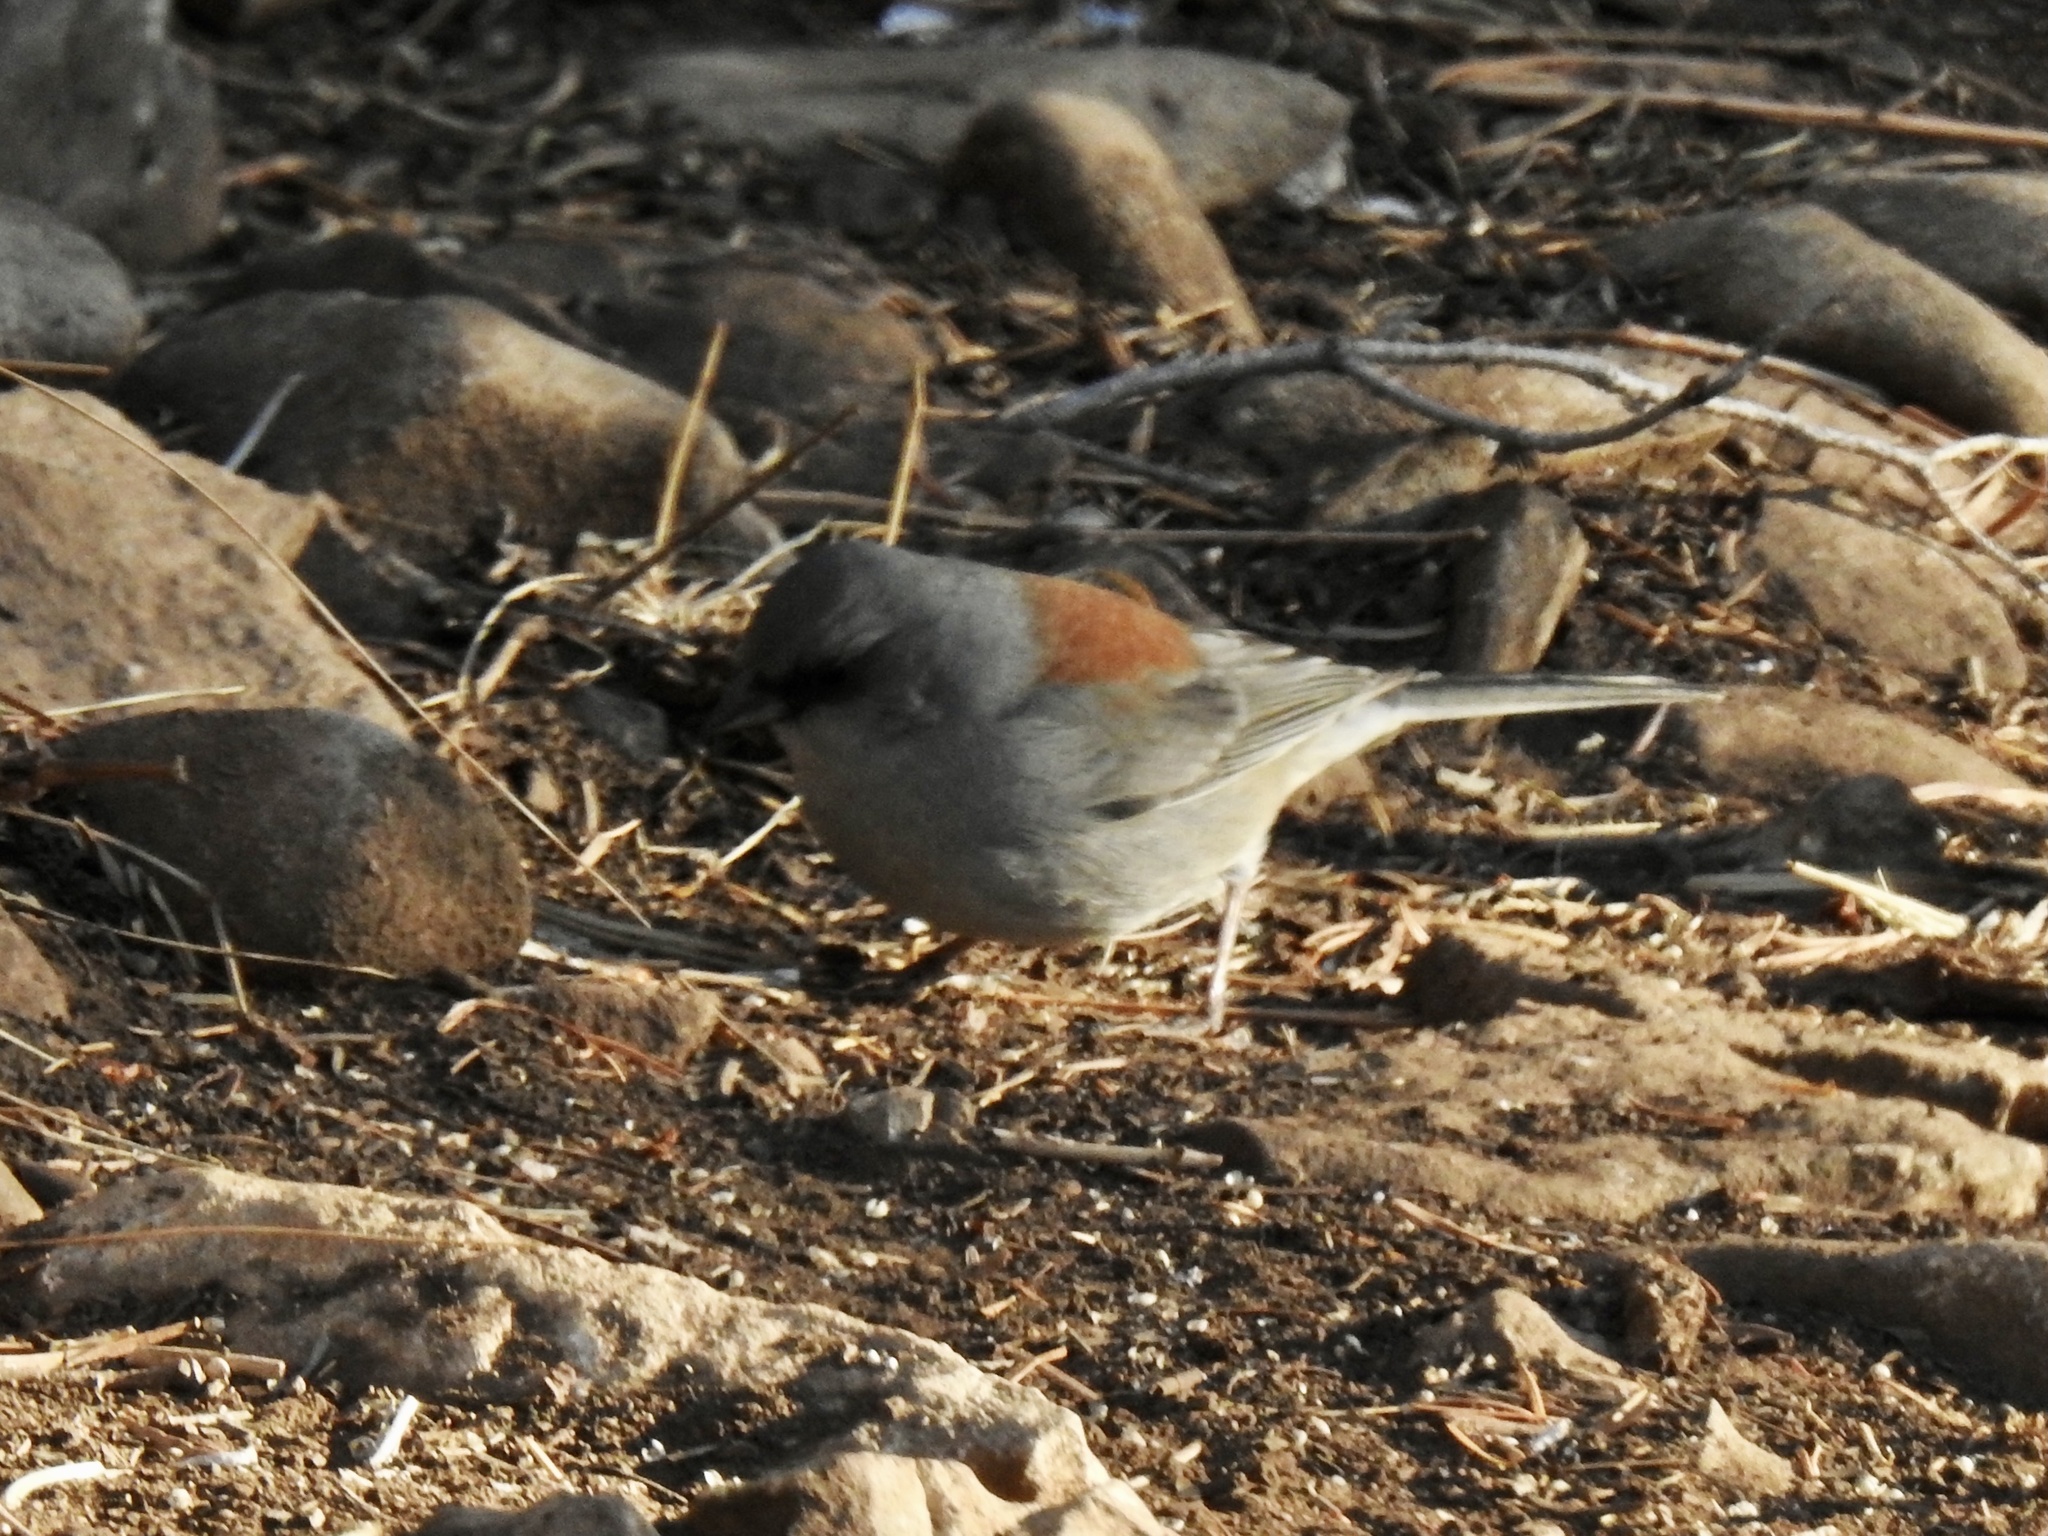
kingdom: Animalia
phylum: Chordata
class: Aves
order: Passeriformes
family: Passerellidae
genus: Junco
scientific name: Junco hyemalis
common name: Dark-eyed junco
